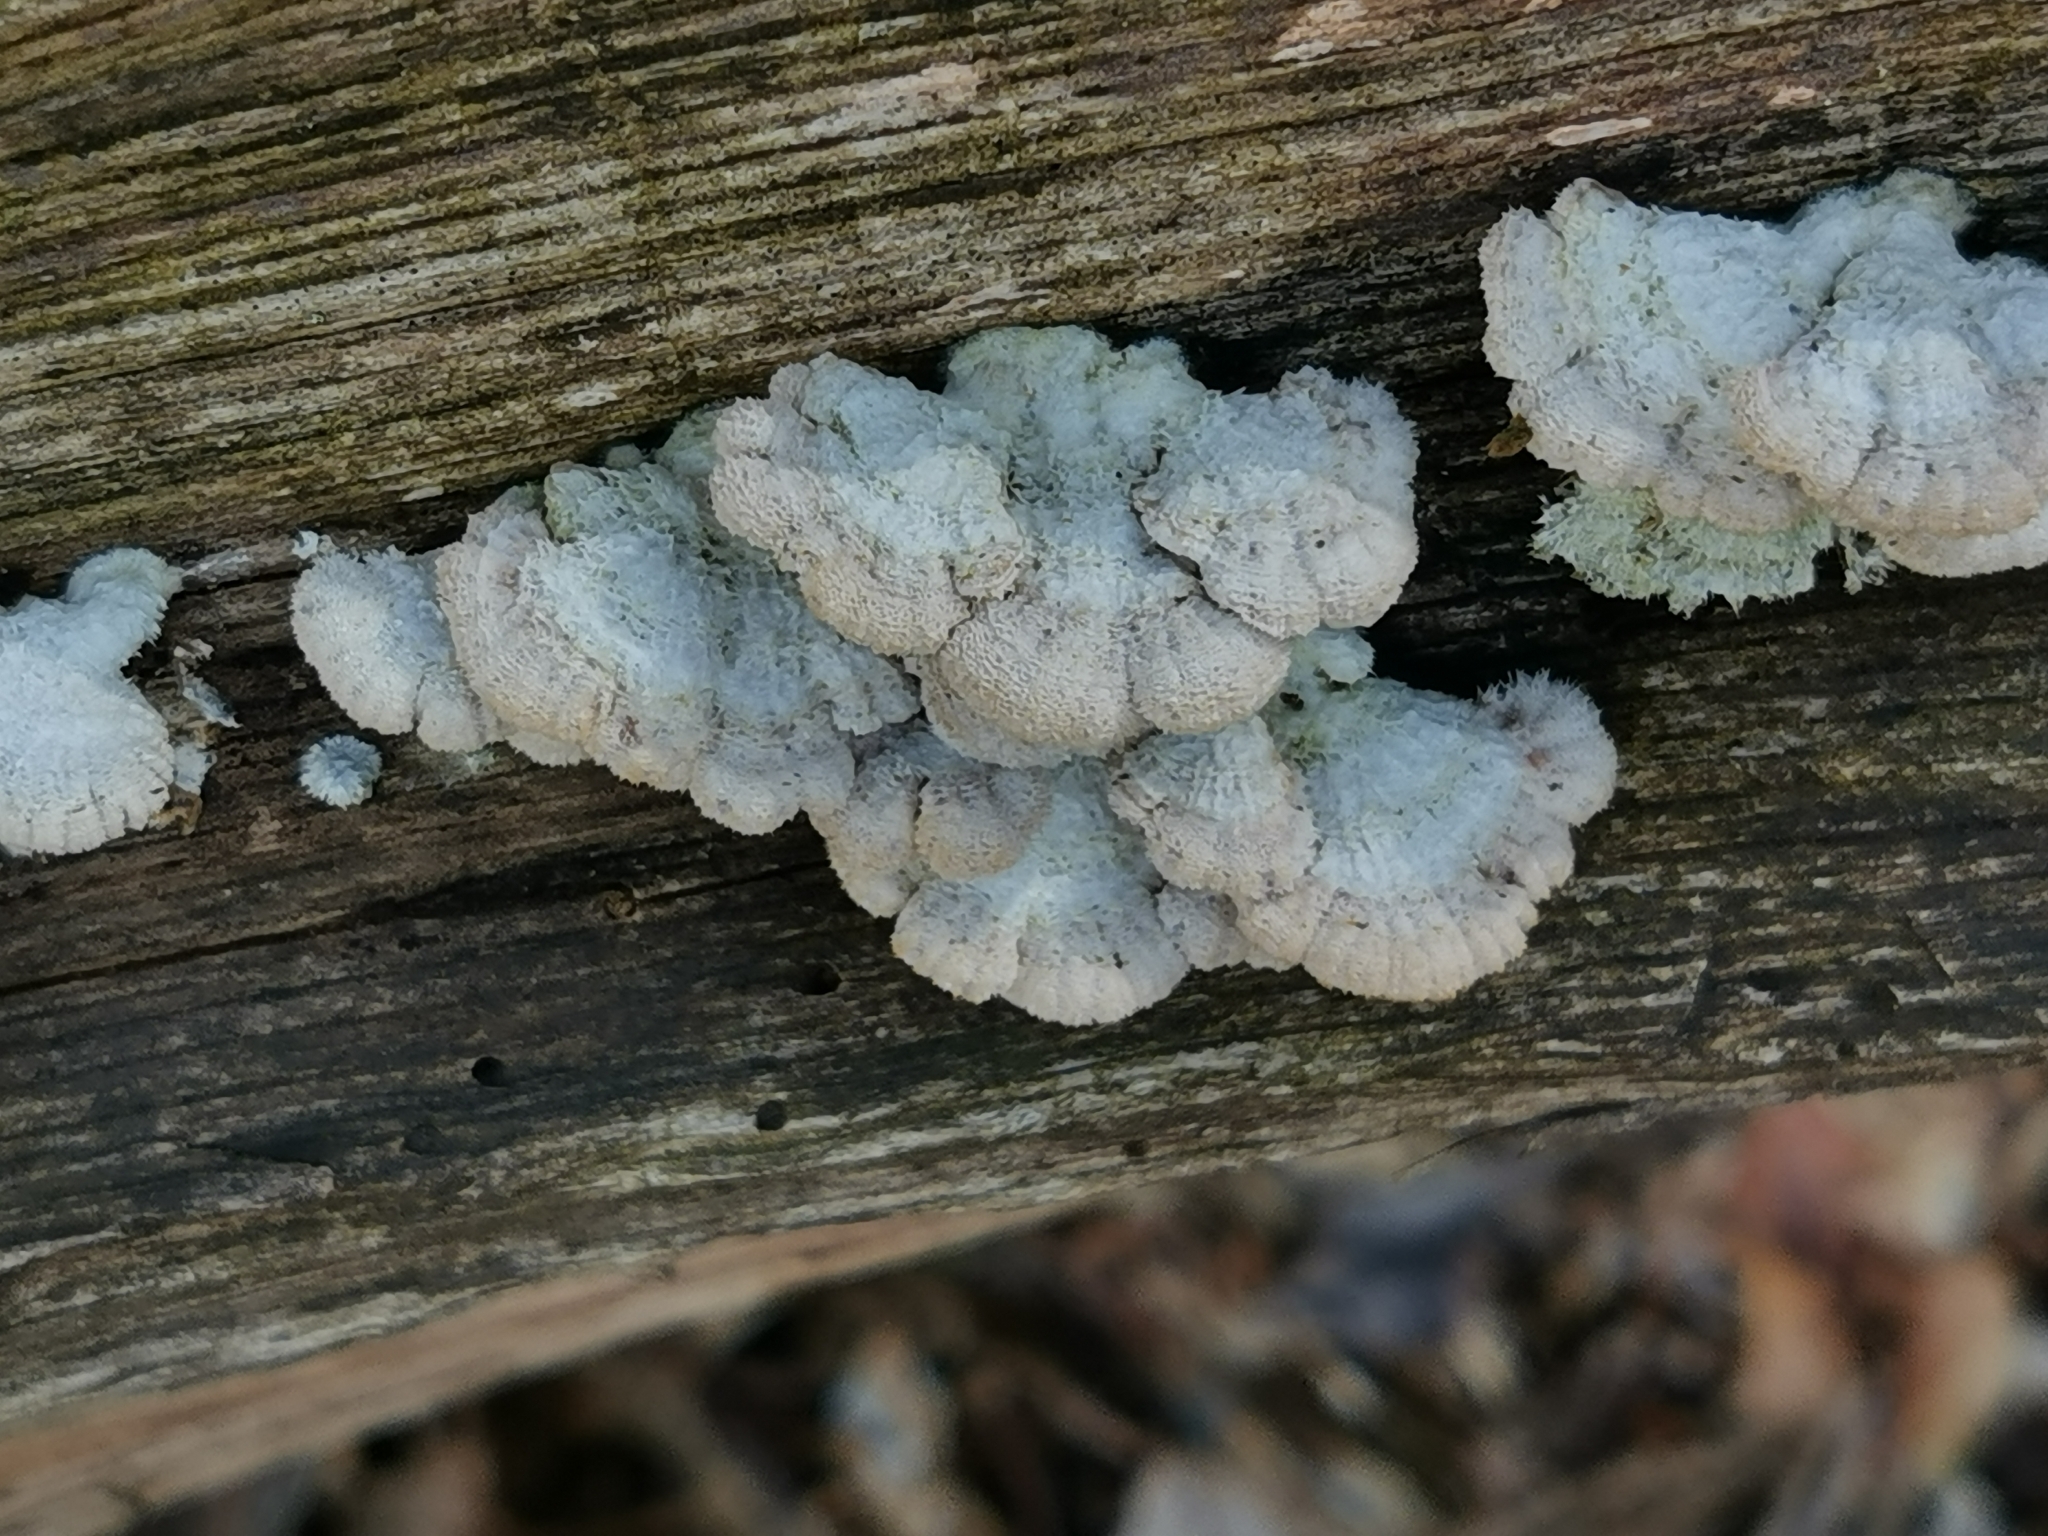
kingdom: Fungi
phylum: Basidiomycota
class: Agaricomycetes
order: Agaricales
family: Schizophyllaceae
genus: Schizophyllum
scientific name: Schizophyllum commune
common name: Common porecrust
